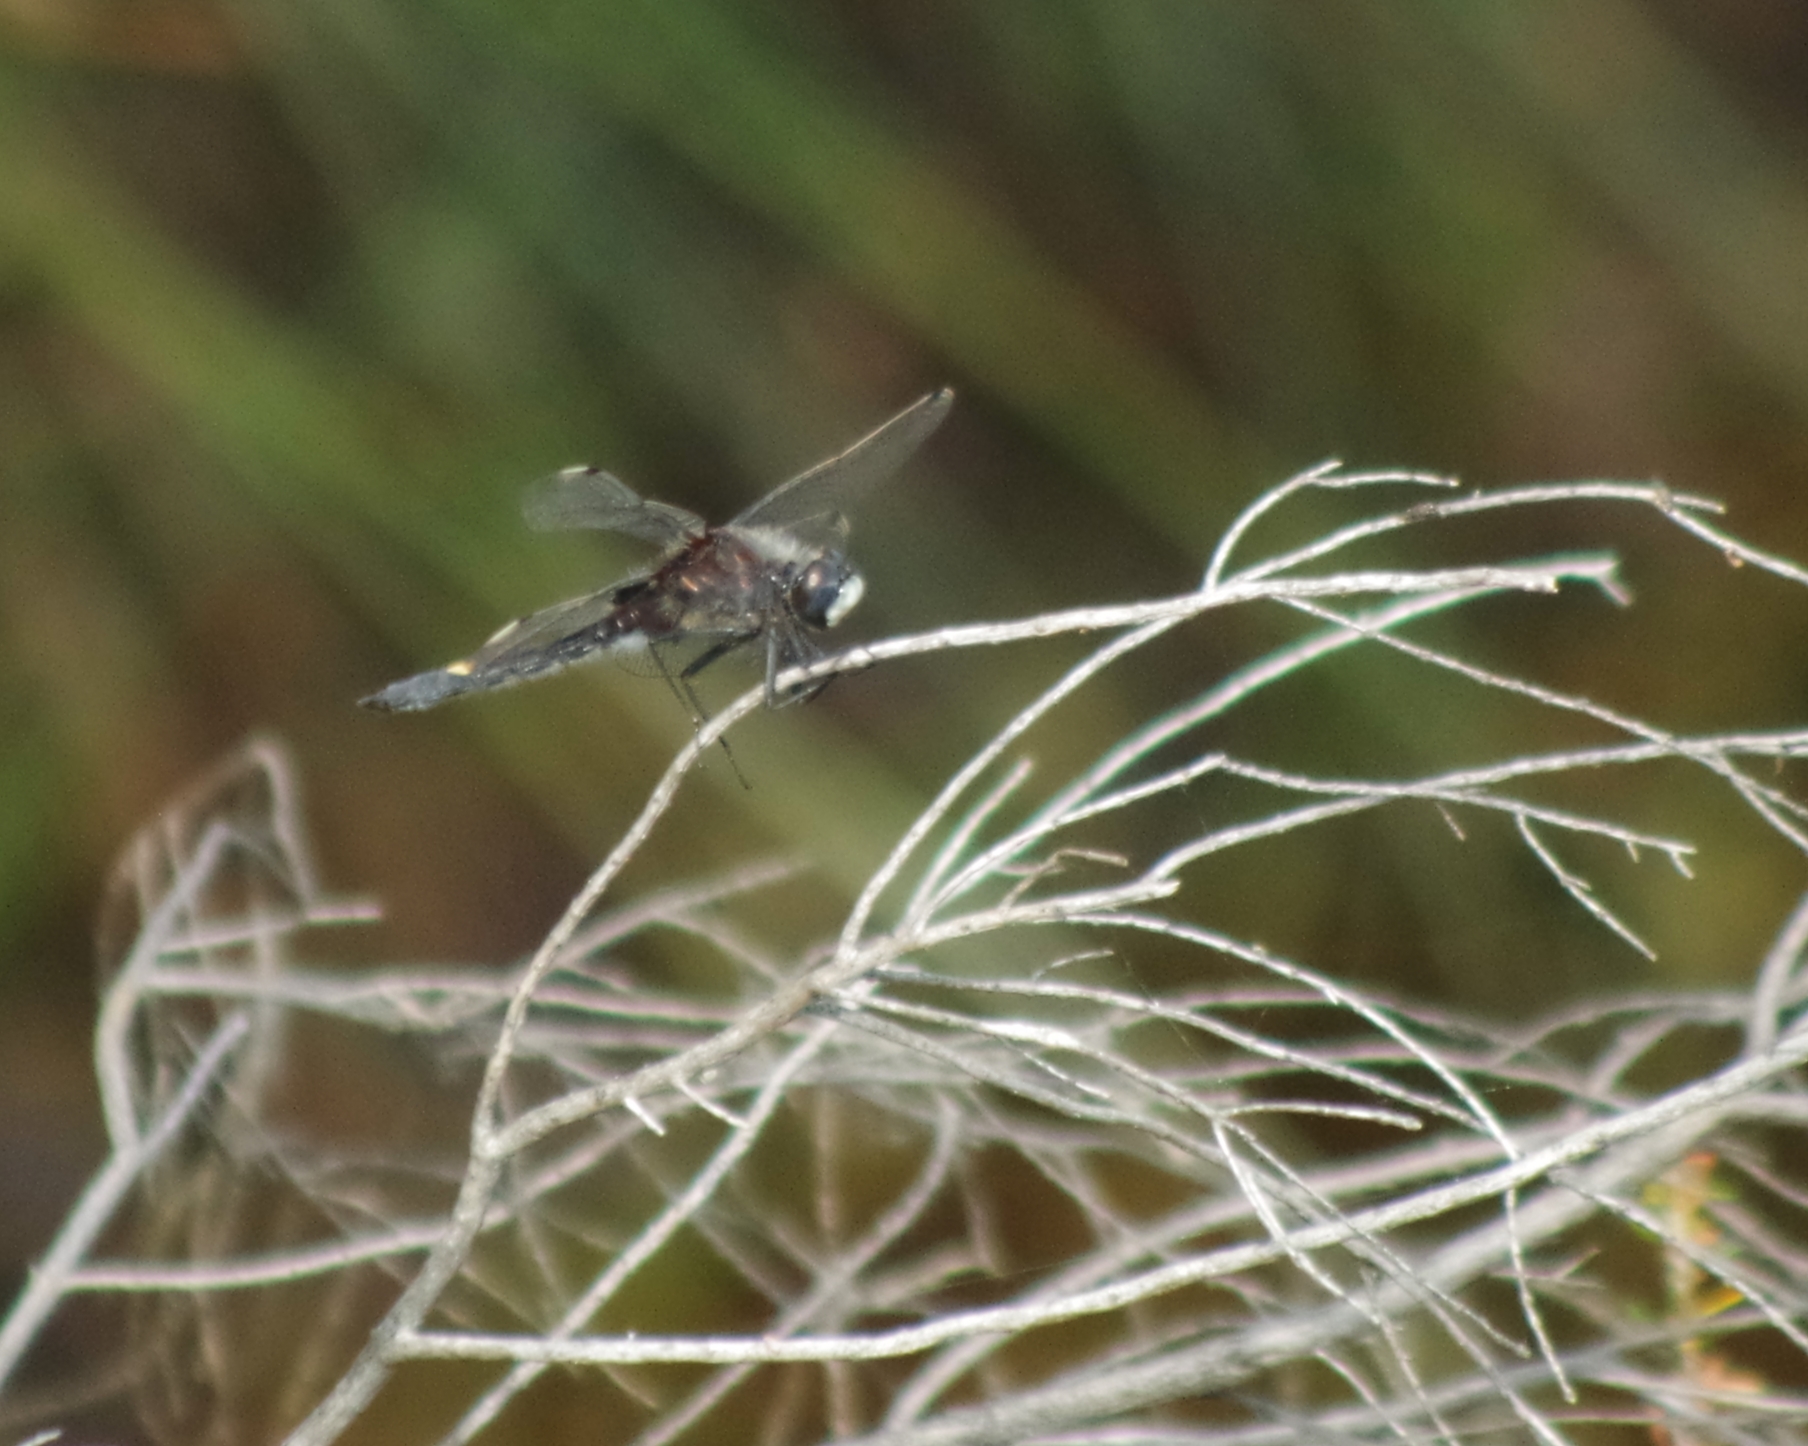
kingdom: Animalia
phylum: Arthropoda
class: Insecta
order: Odonata
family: Libellulidae
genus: Leucorrhinia
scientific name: Leucorrhinia pectoralis
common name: Yellow-spotted whiteface
